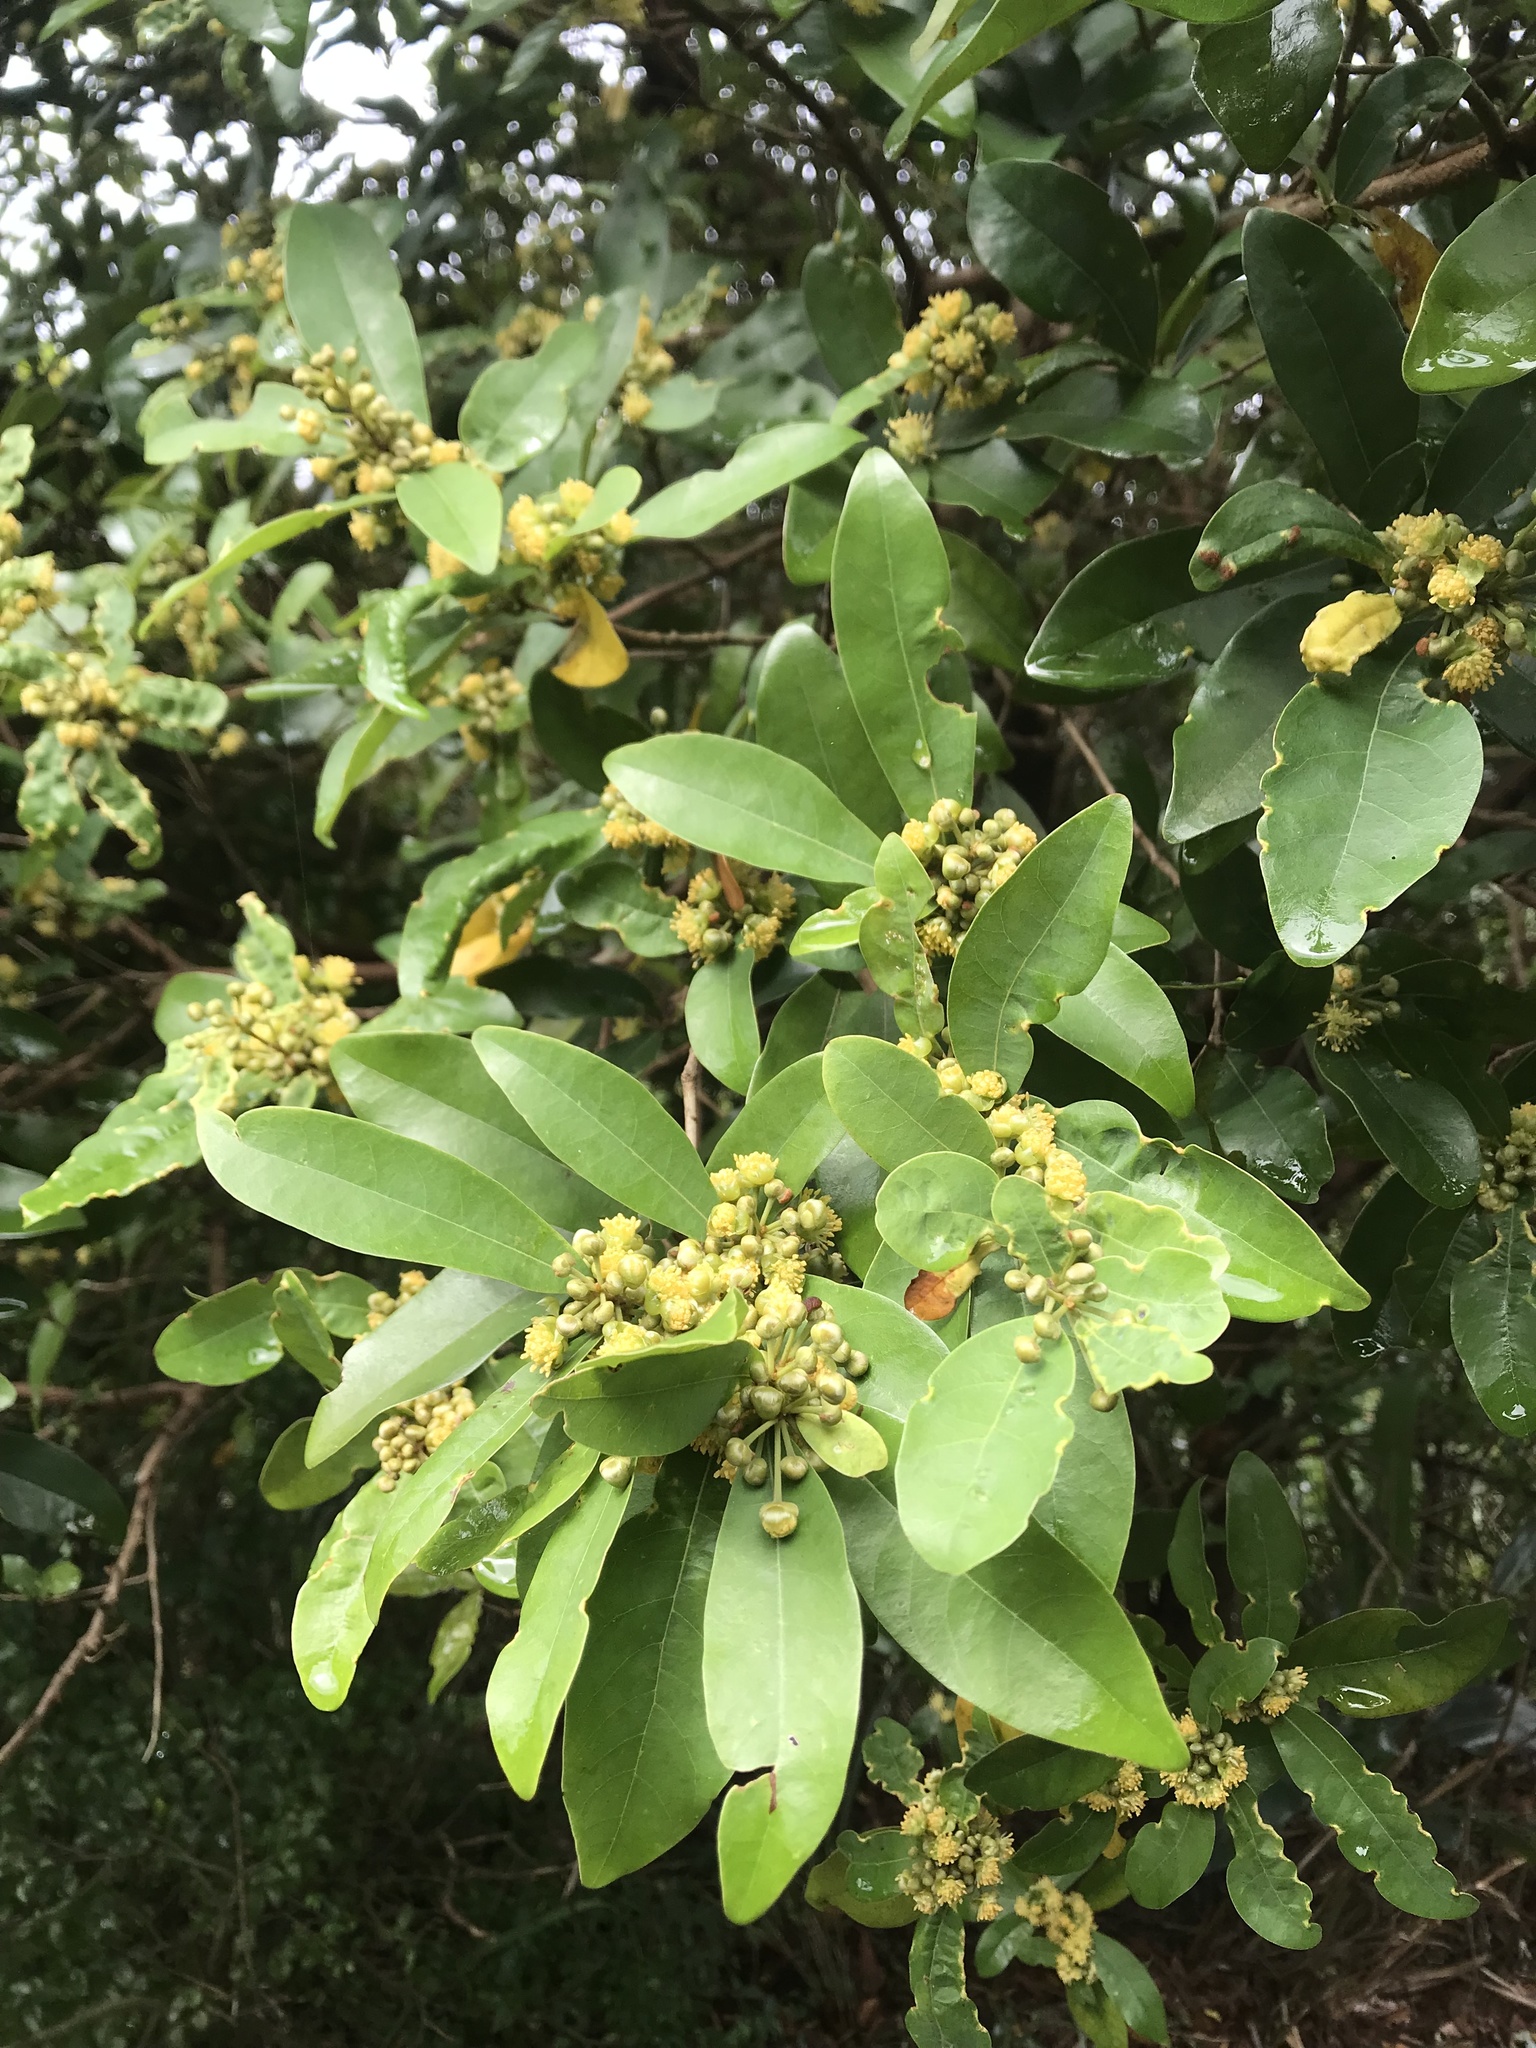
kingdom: Plantae
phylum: Tracheophyta
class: Magnoliopsida
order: Laurales
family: Lauraceae
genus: Litsea
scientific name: Litsea hypophaea
